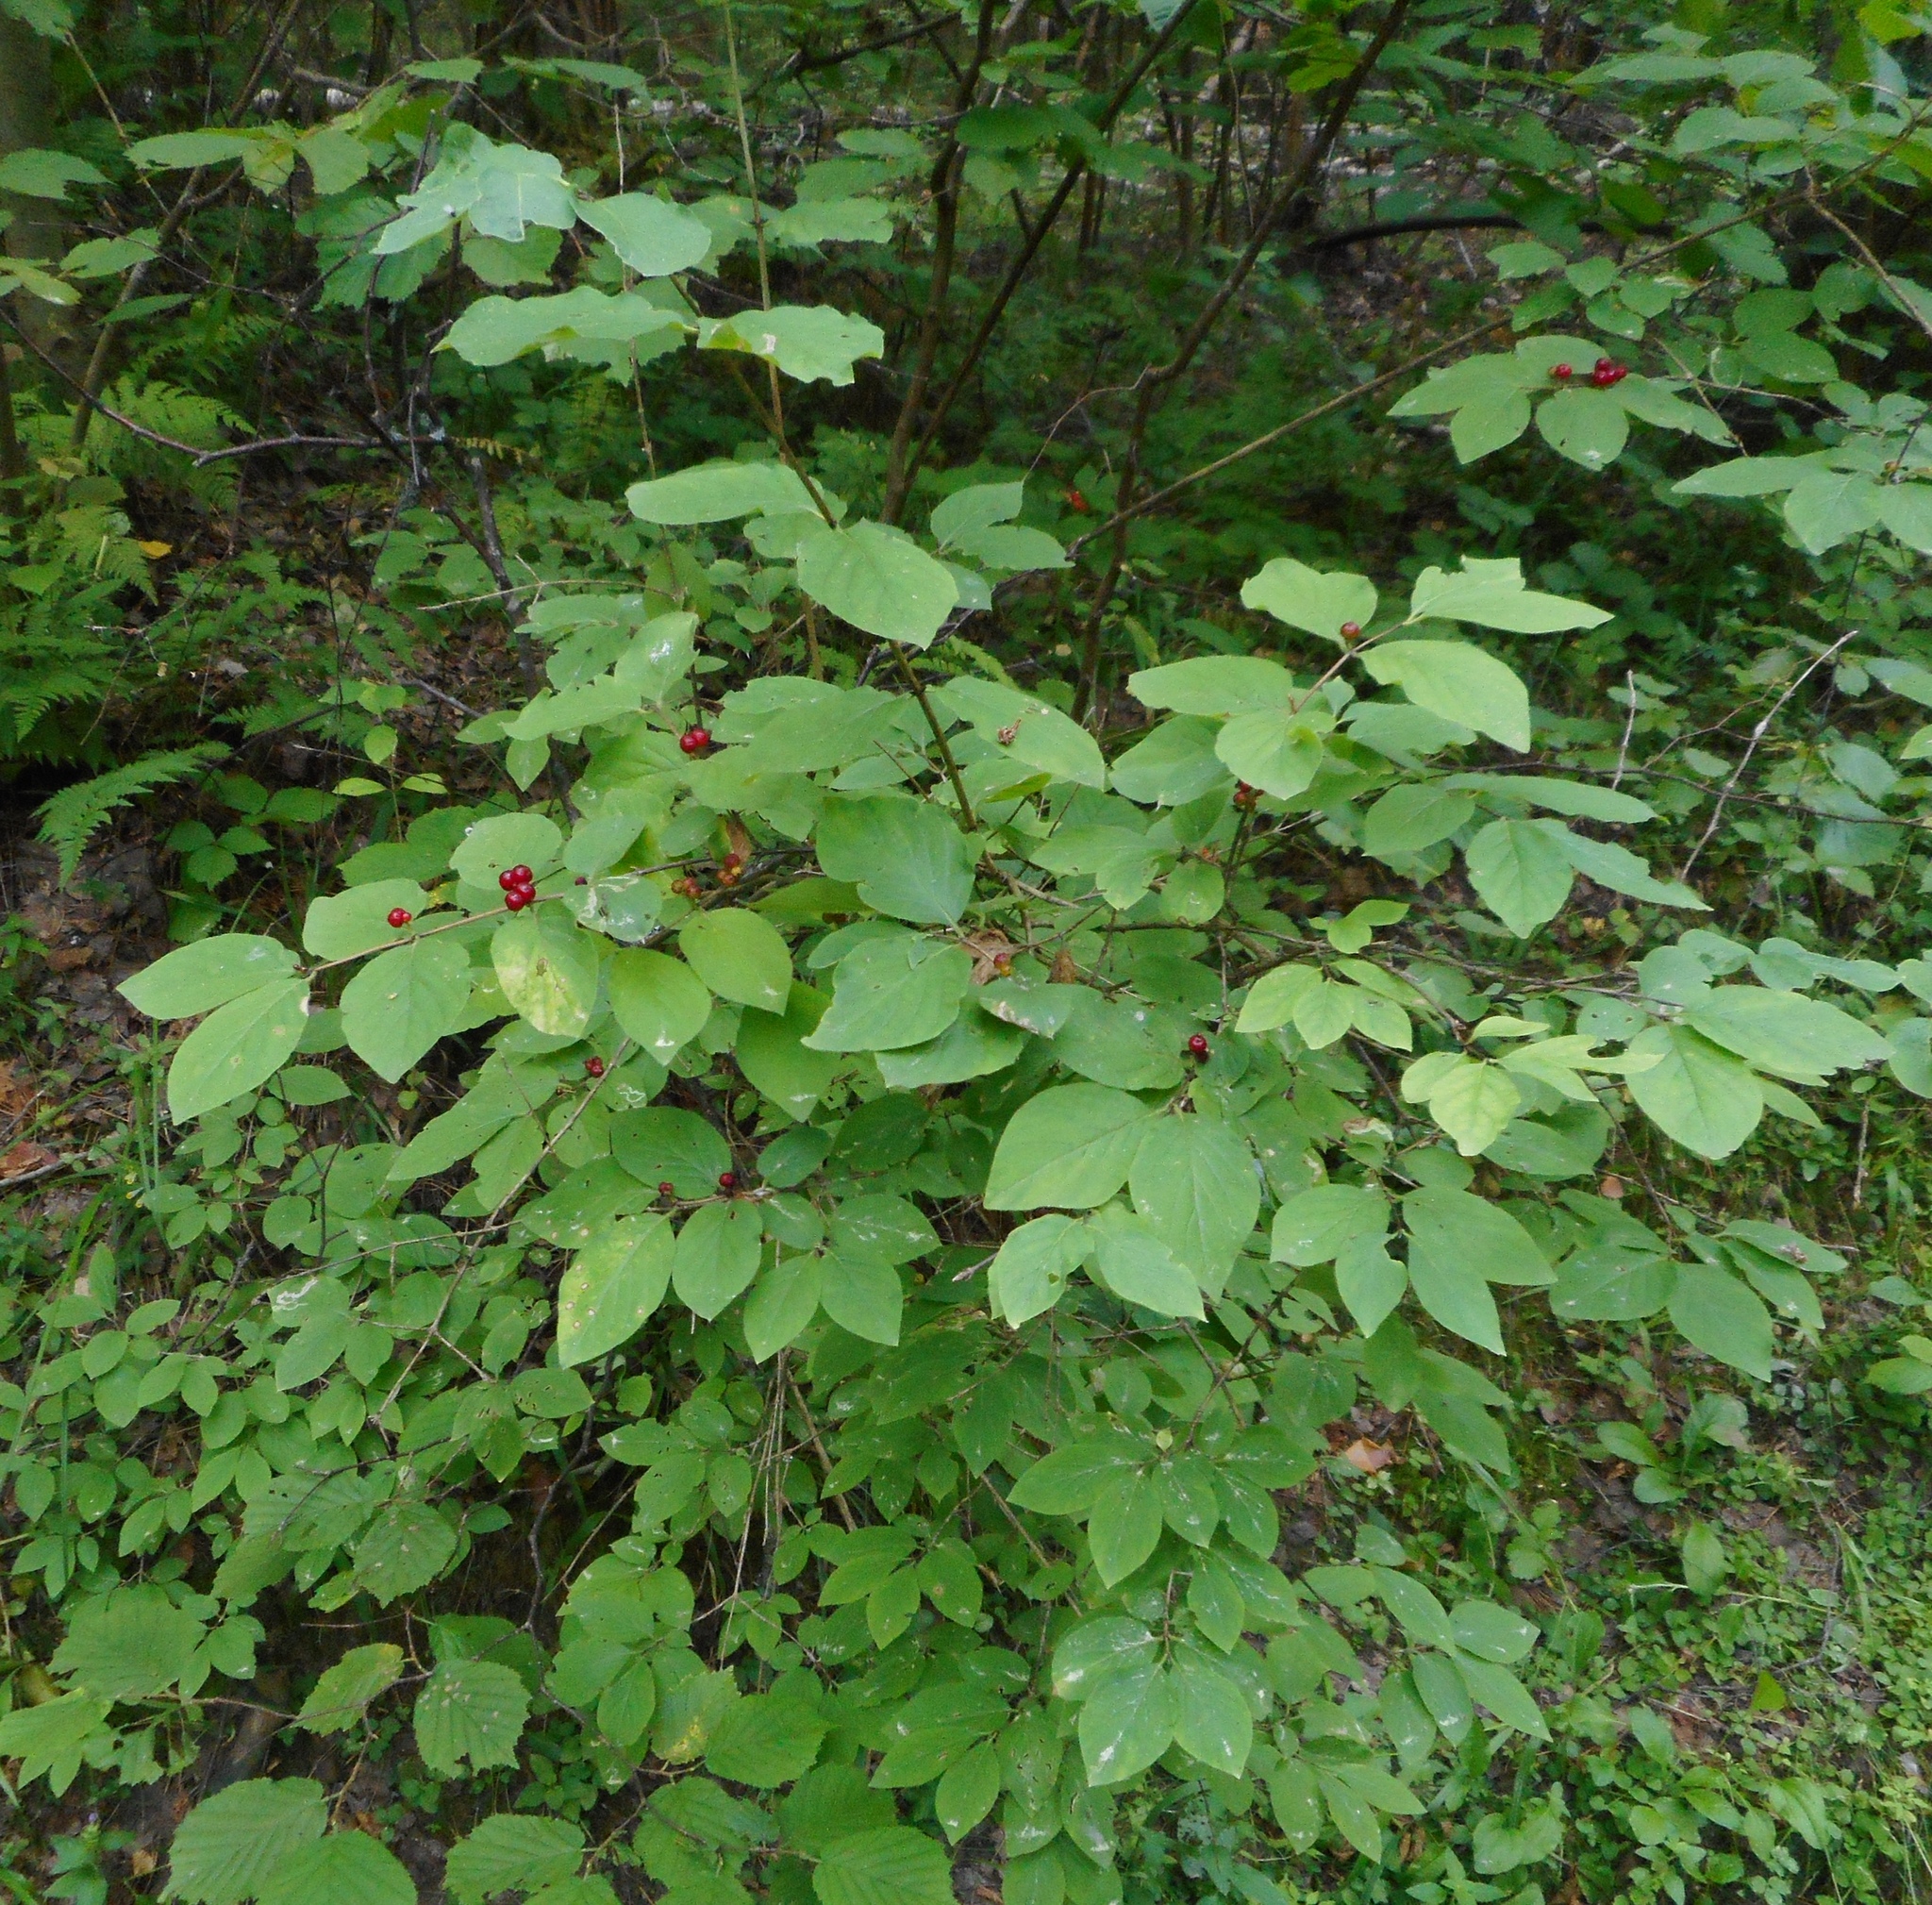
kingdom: Plantae
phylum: Tracheophyta
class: Magnoliopsida
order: Dipsacales
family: Caprifoliaceae
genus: Lonicera
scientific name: Lonicera xylosteum
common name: Fly honeysuckle
